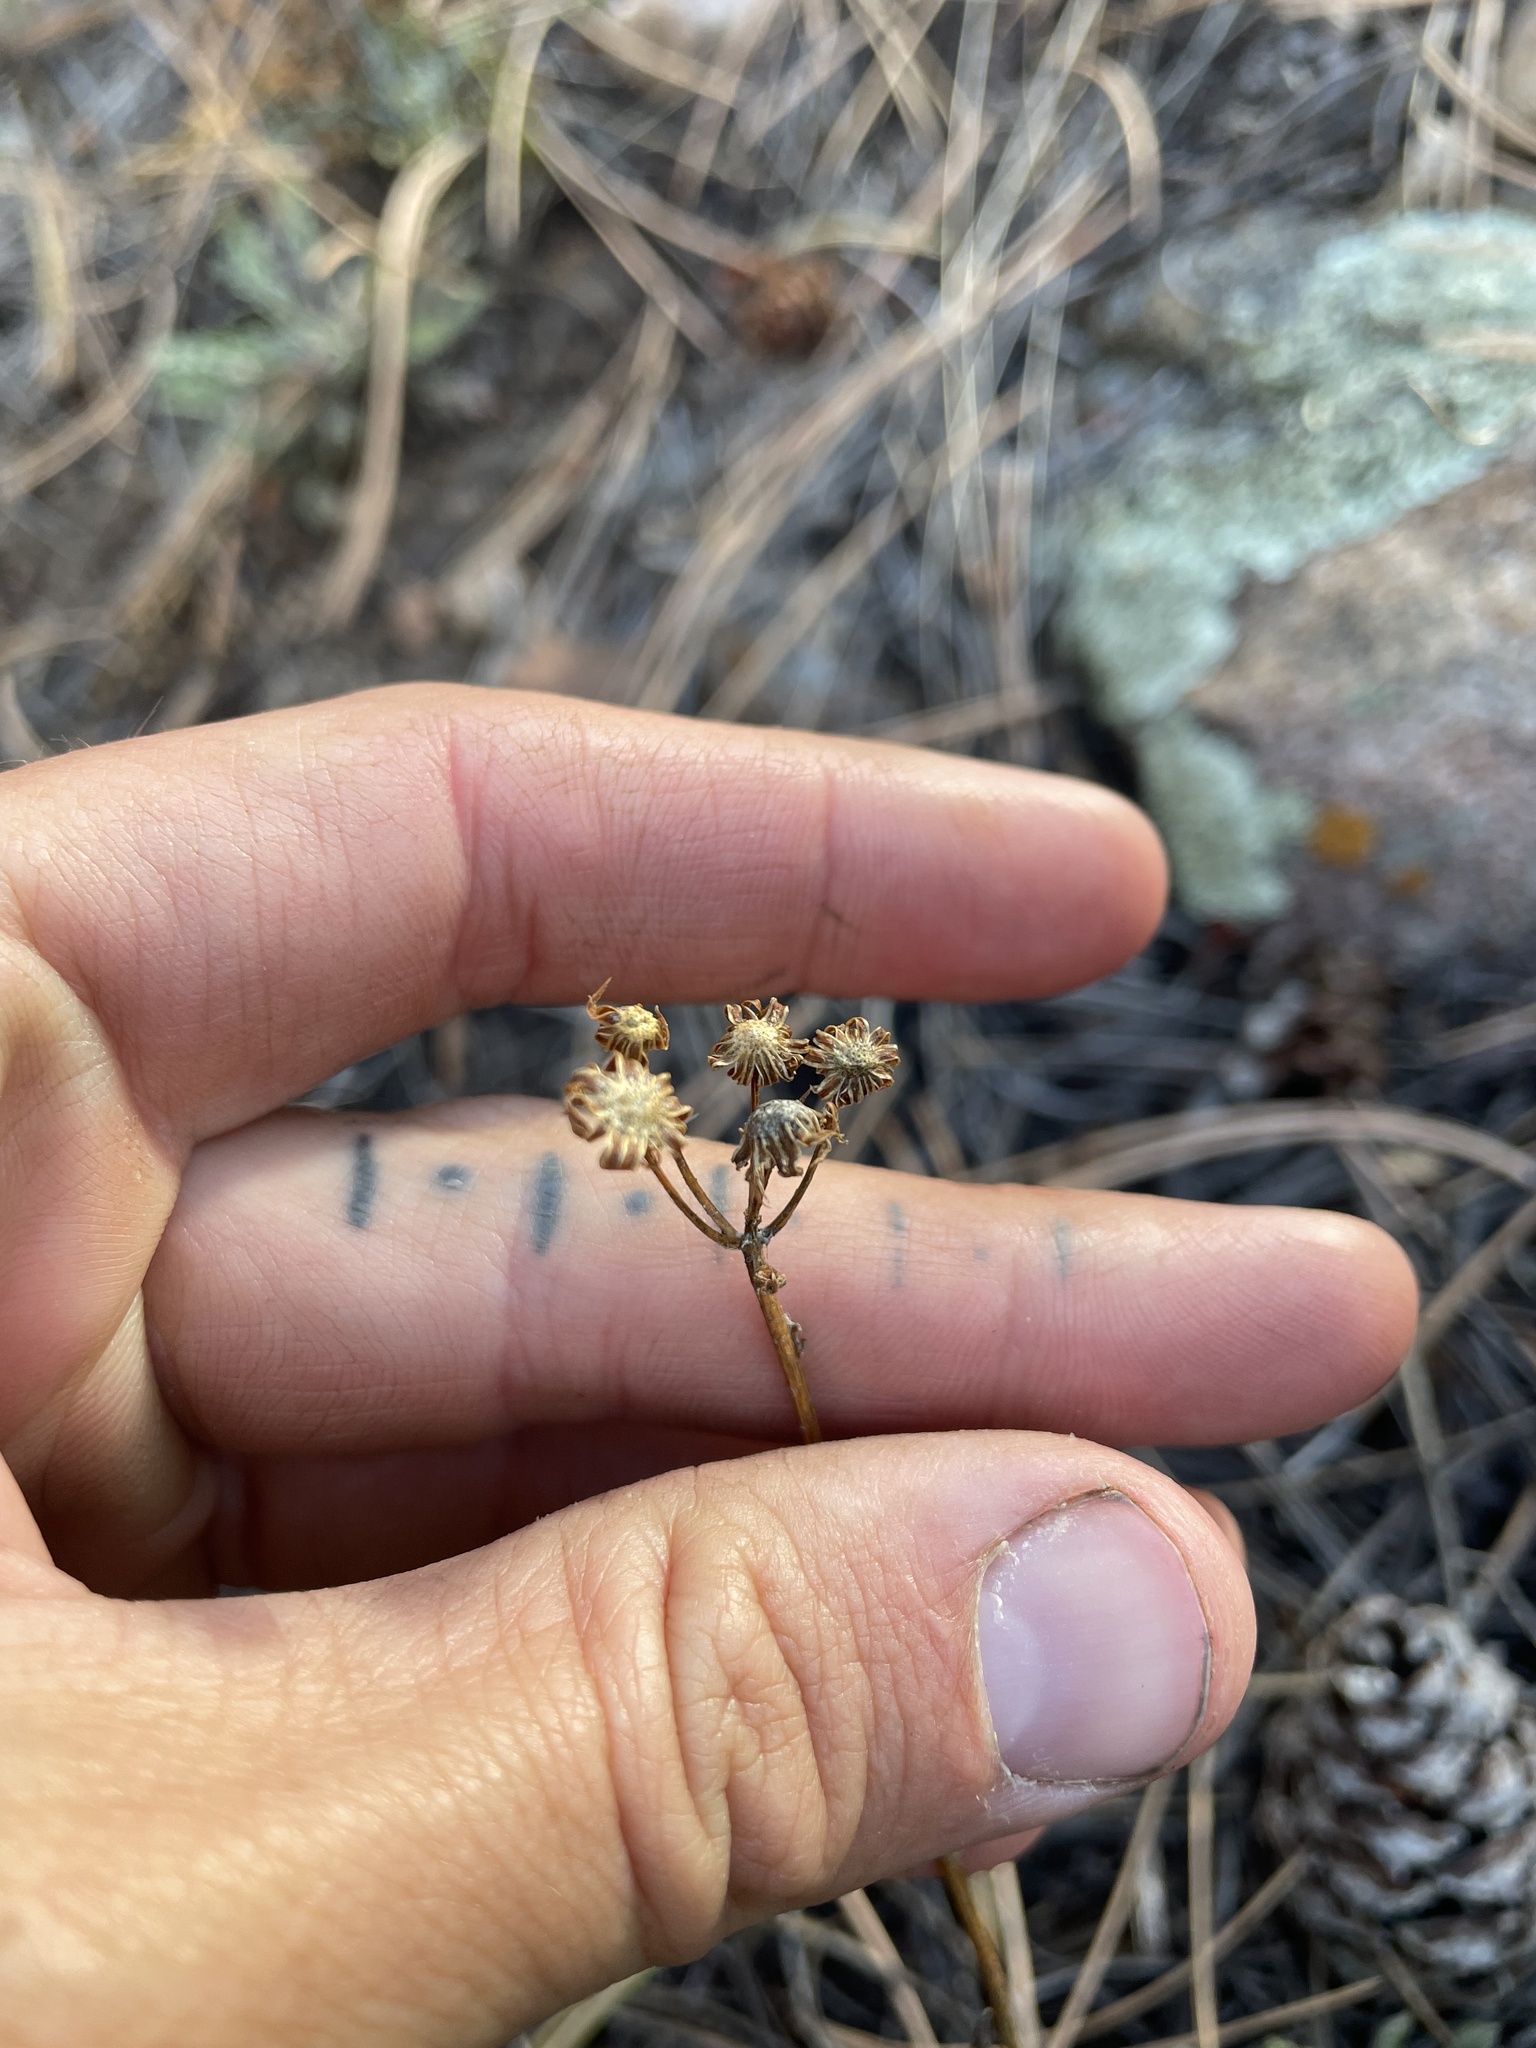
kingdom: Plantae
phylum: Tracheophyta
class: Magnoliopsida
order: Asterales
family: Asteraceae
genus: Packera
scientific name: Packera fendleri
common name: Notch-leaf butterweed
